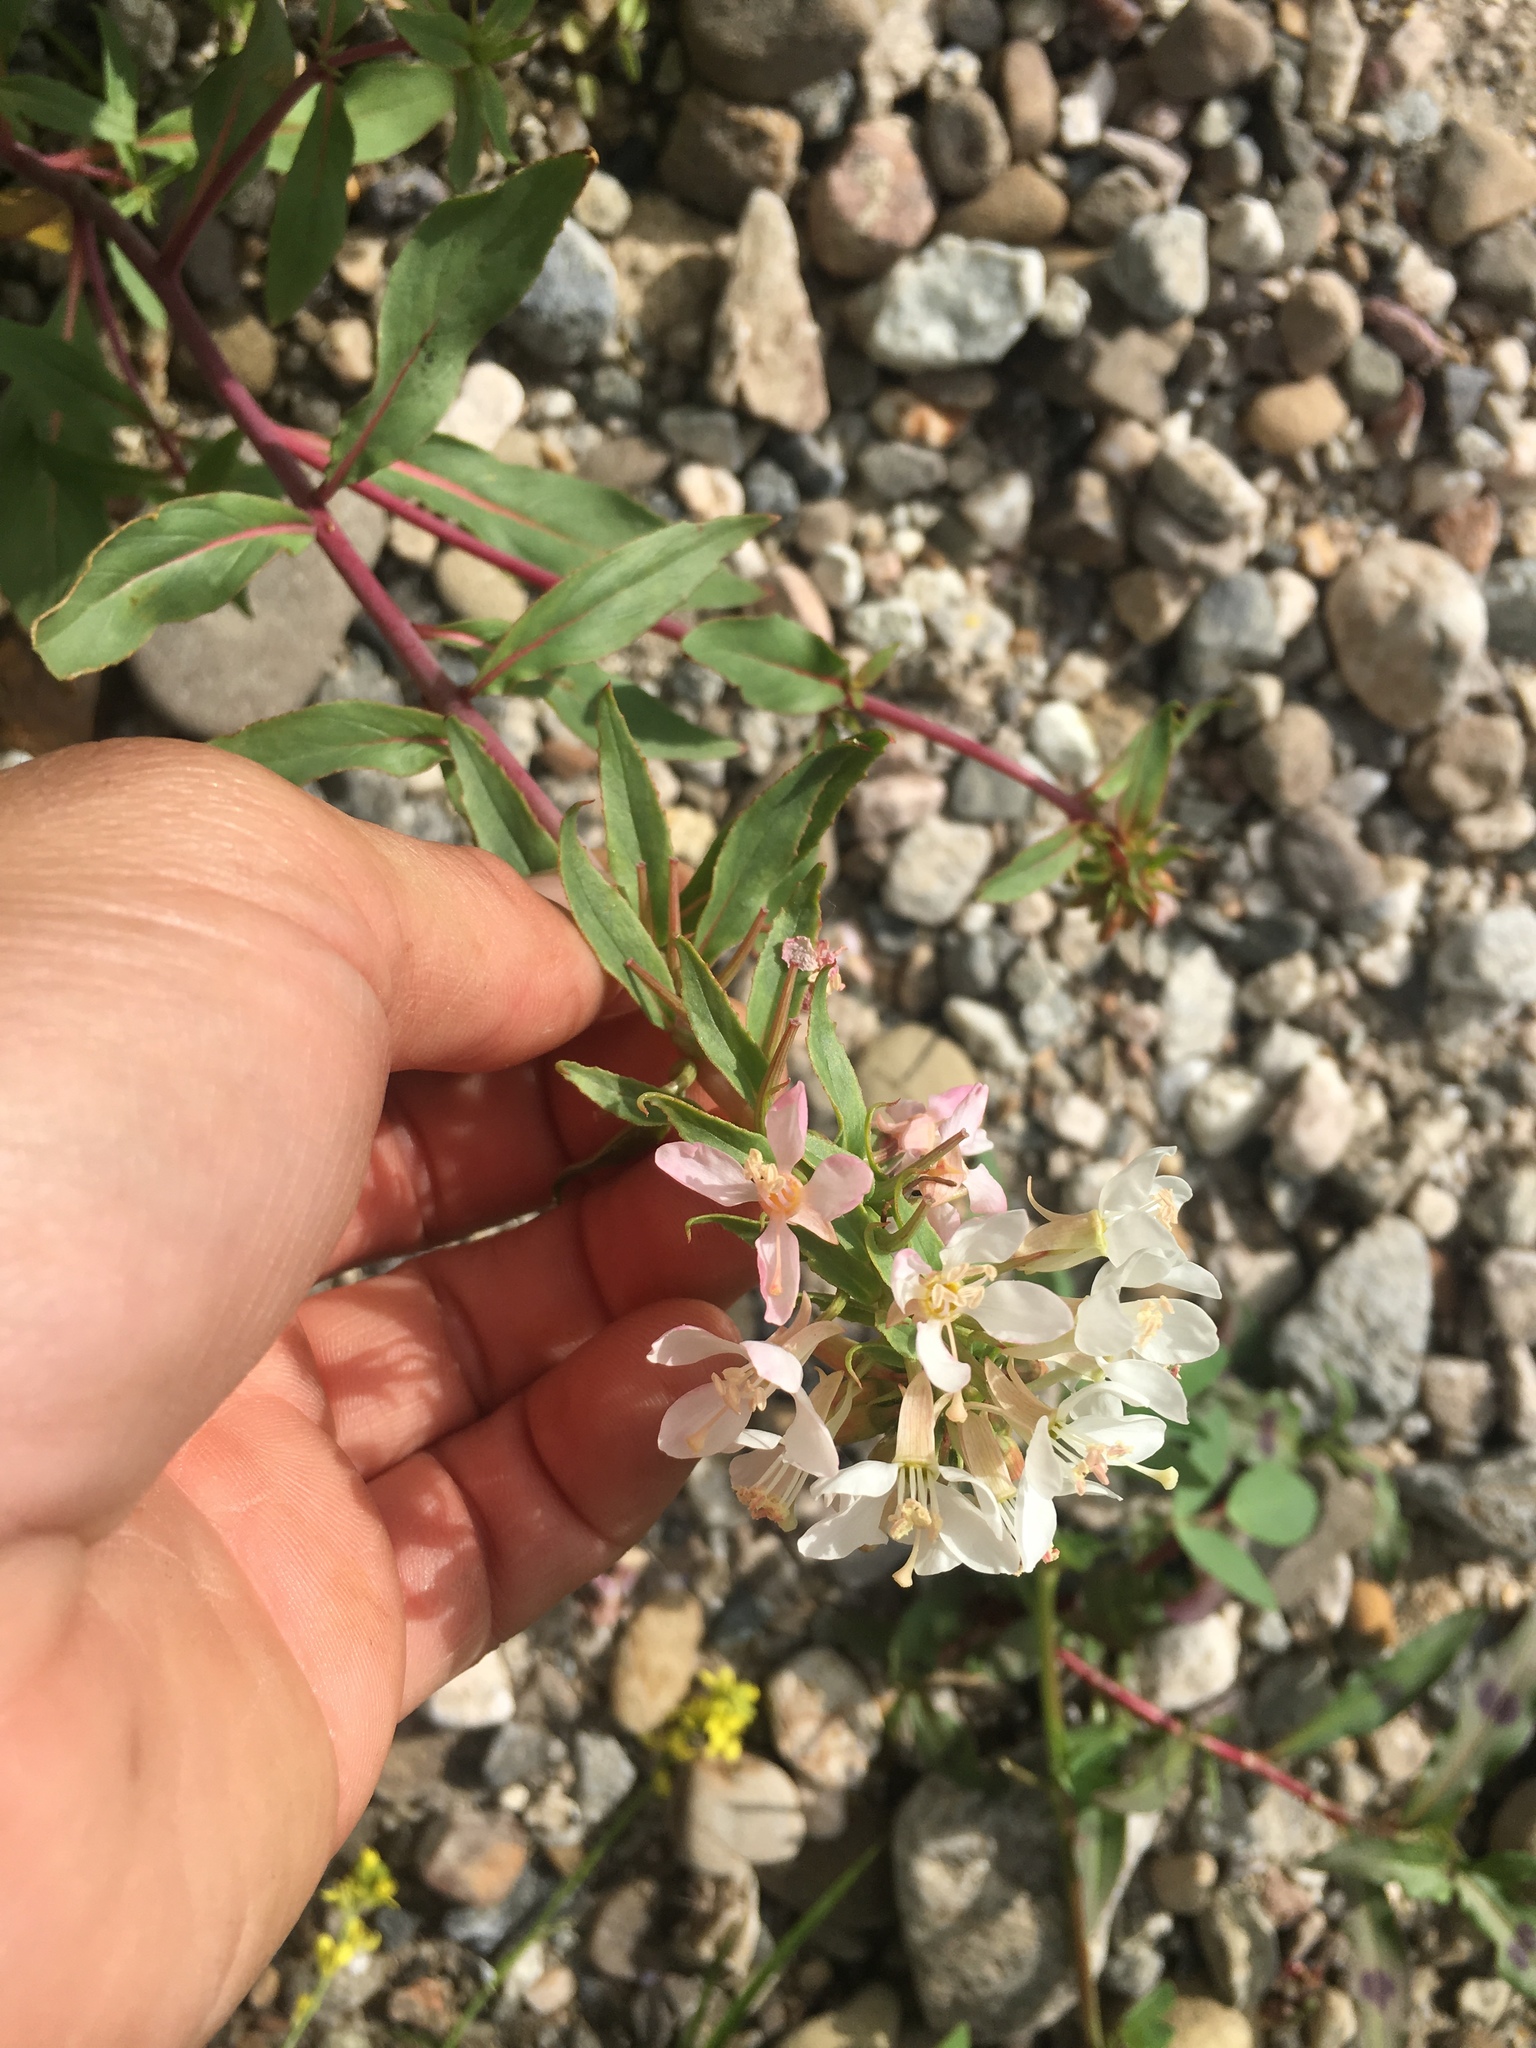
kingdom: Plantae
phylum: Tracheophyta
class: Magnoliopsida
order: Myrtales
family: Onagraceae
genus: Eremothera
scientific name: Eremothera boothii
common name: Booth's evening primrose
